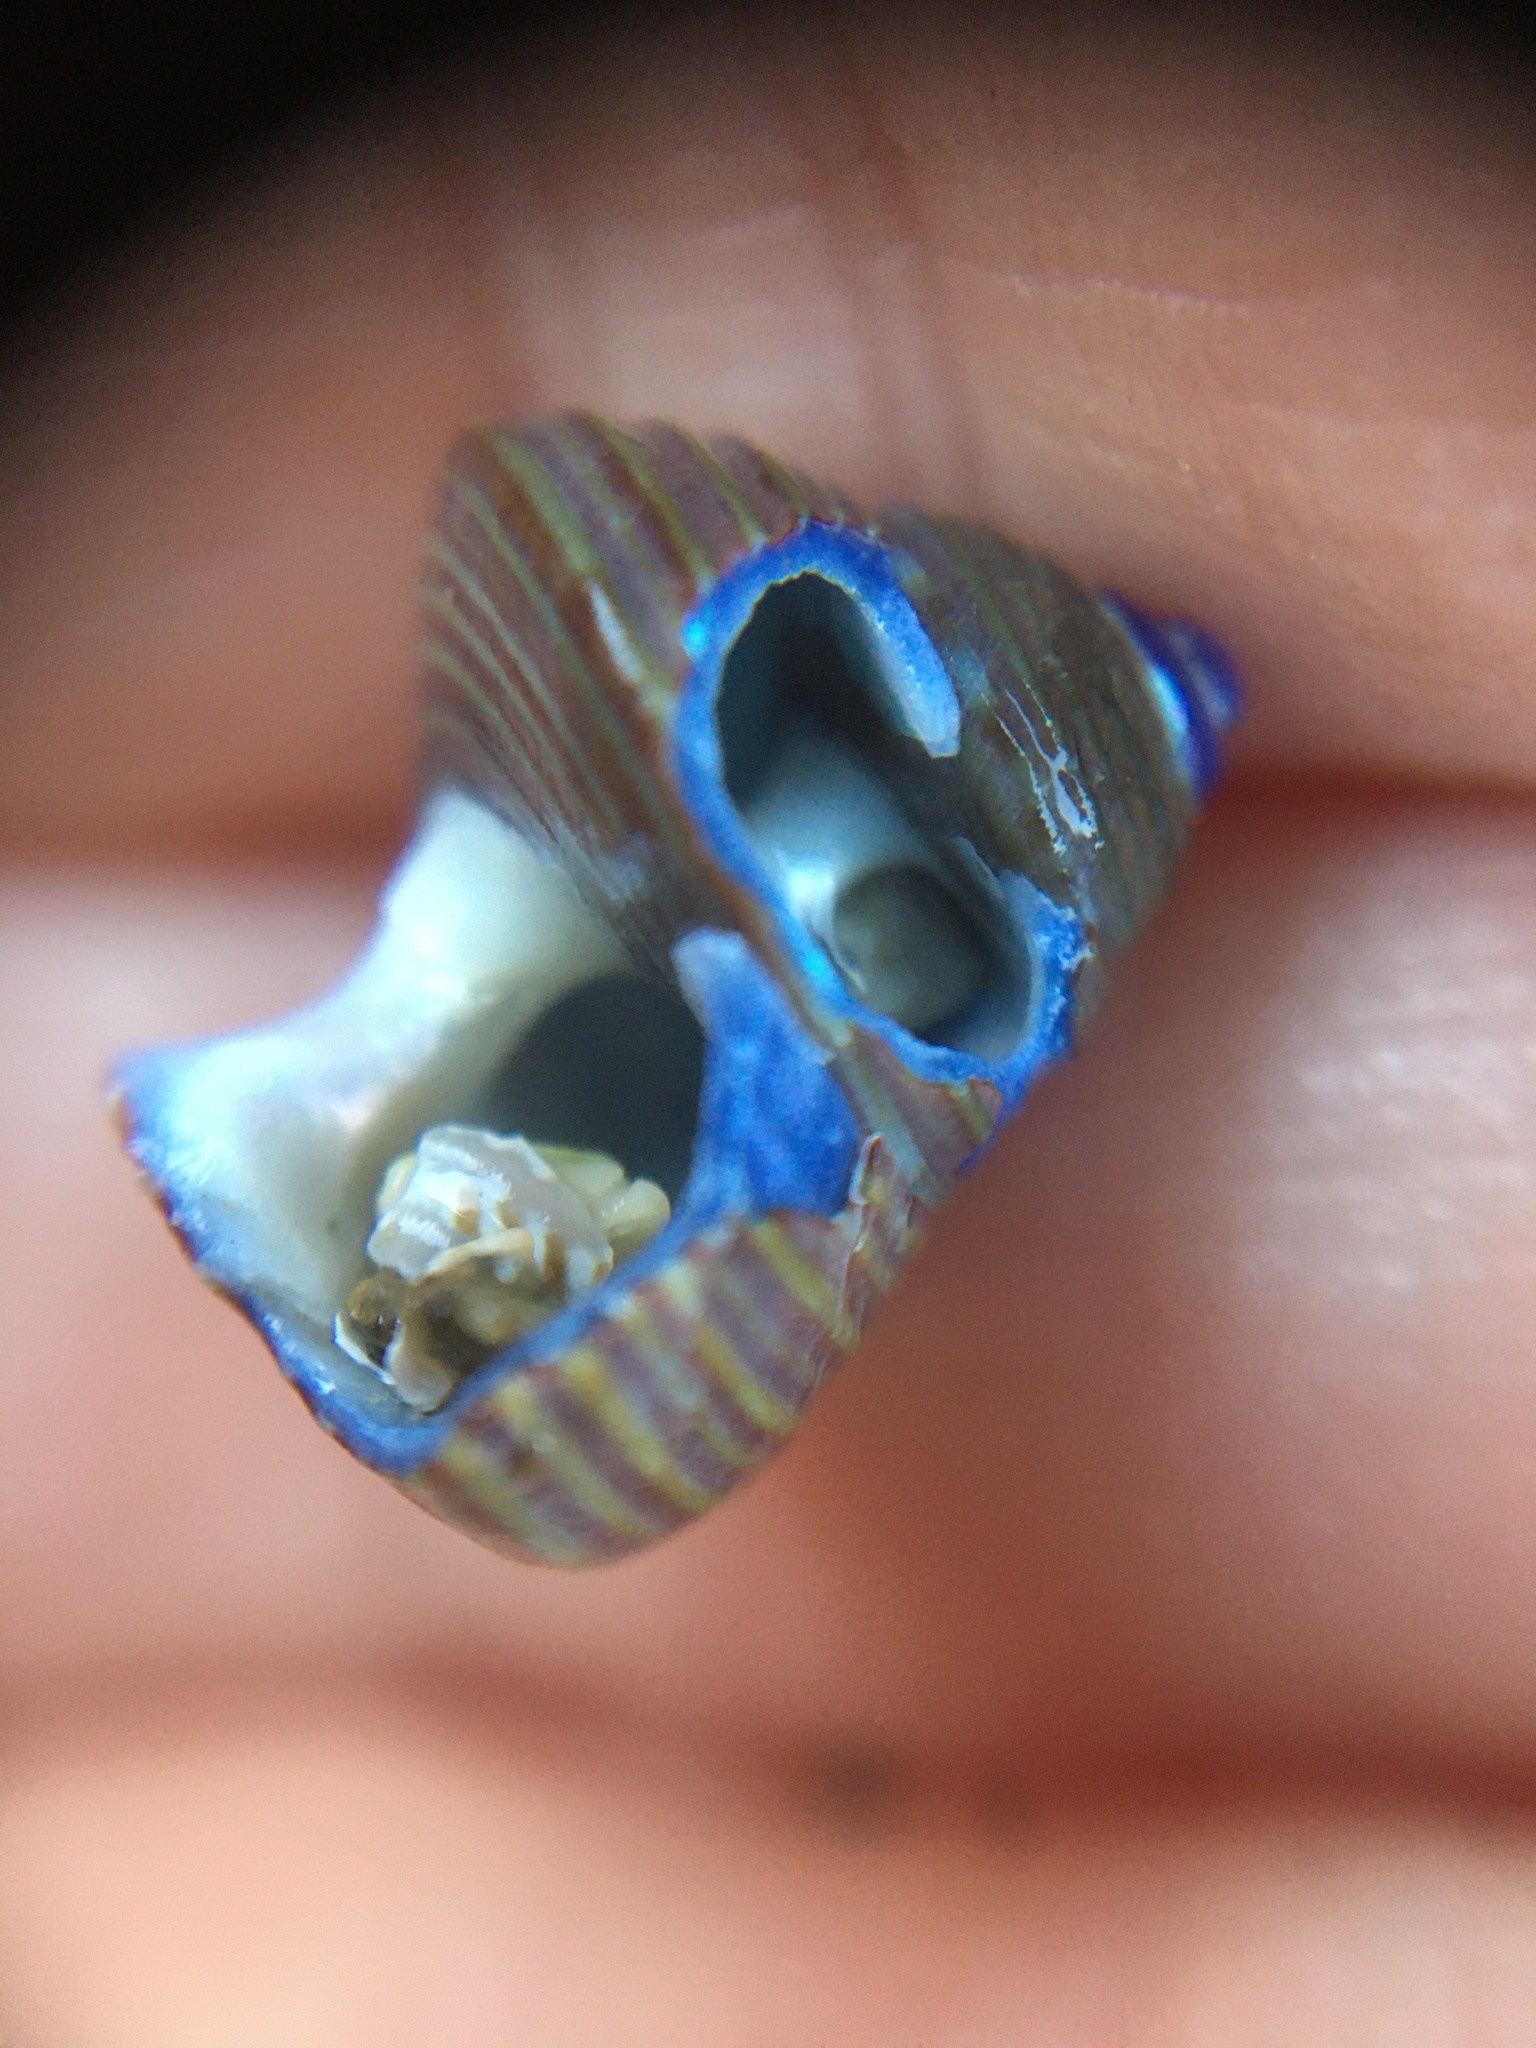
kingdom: Animalia
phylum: Mollusca
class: Gastropoda
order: Trochida
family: Calliostomatidae
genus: Calliostoma
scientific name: Calliostoma ligatum
